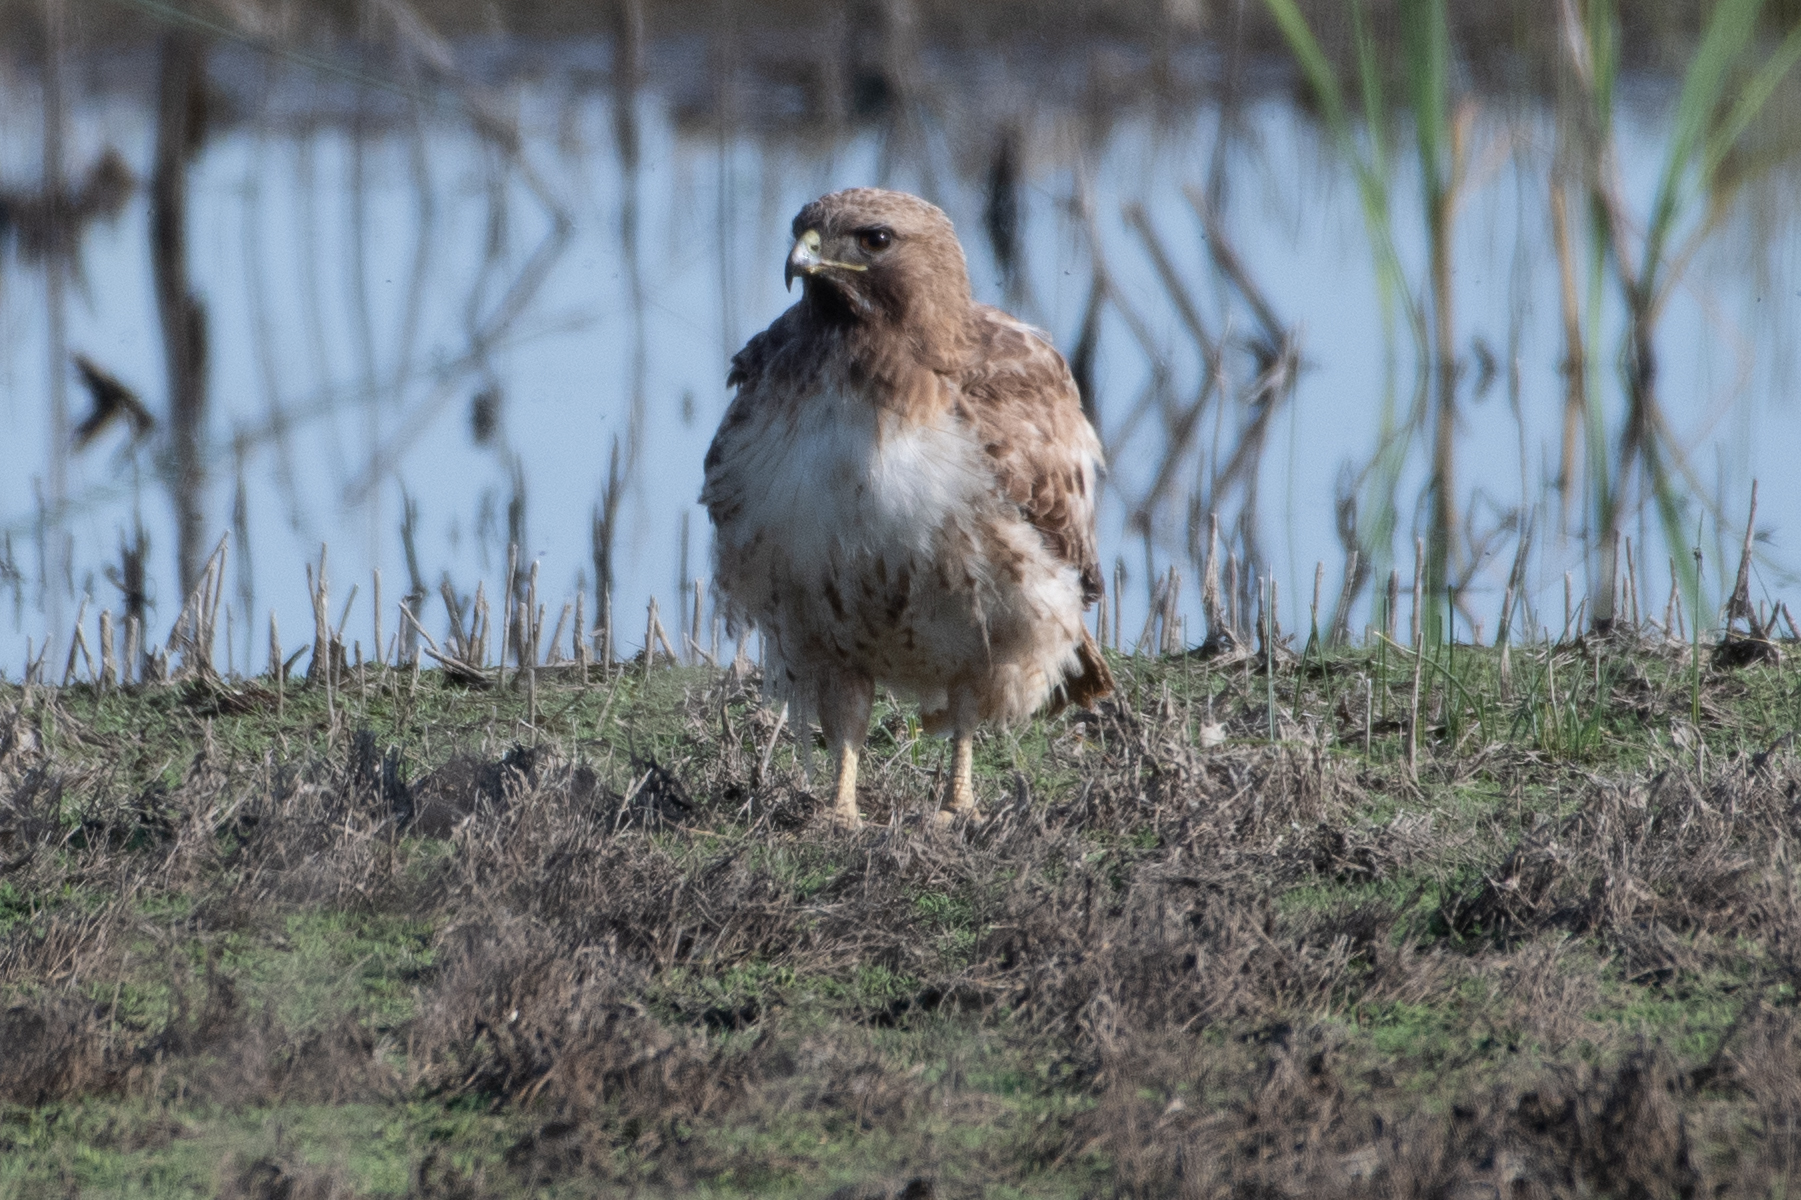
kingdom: Animalia
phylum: Chordata
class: Aves
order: Accipitriformes
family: Accipitridae
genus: Buteo
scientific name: Buteo jamaicensis
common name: Red-tailed hawk
